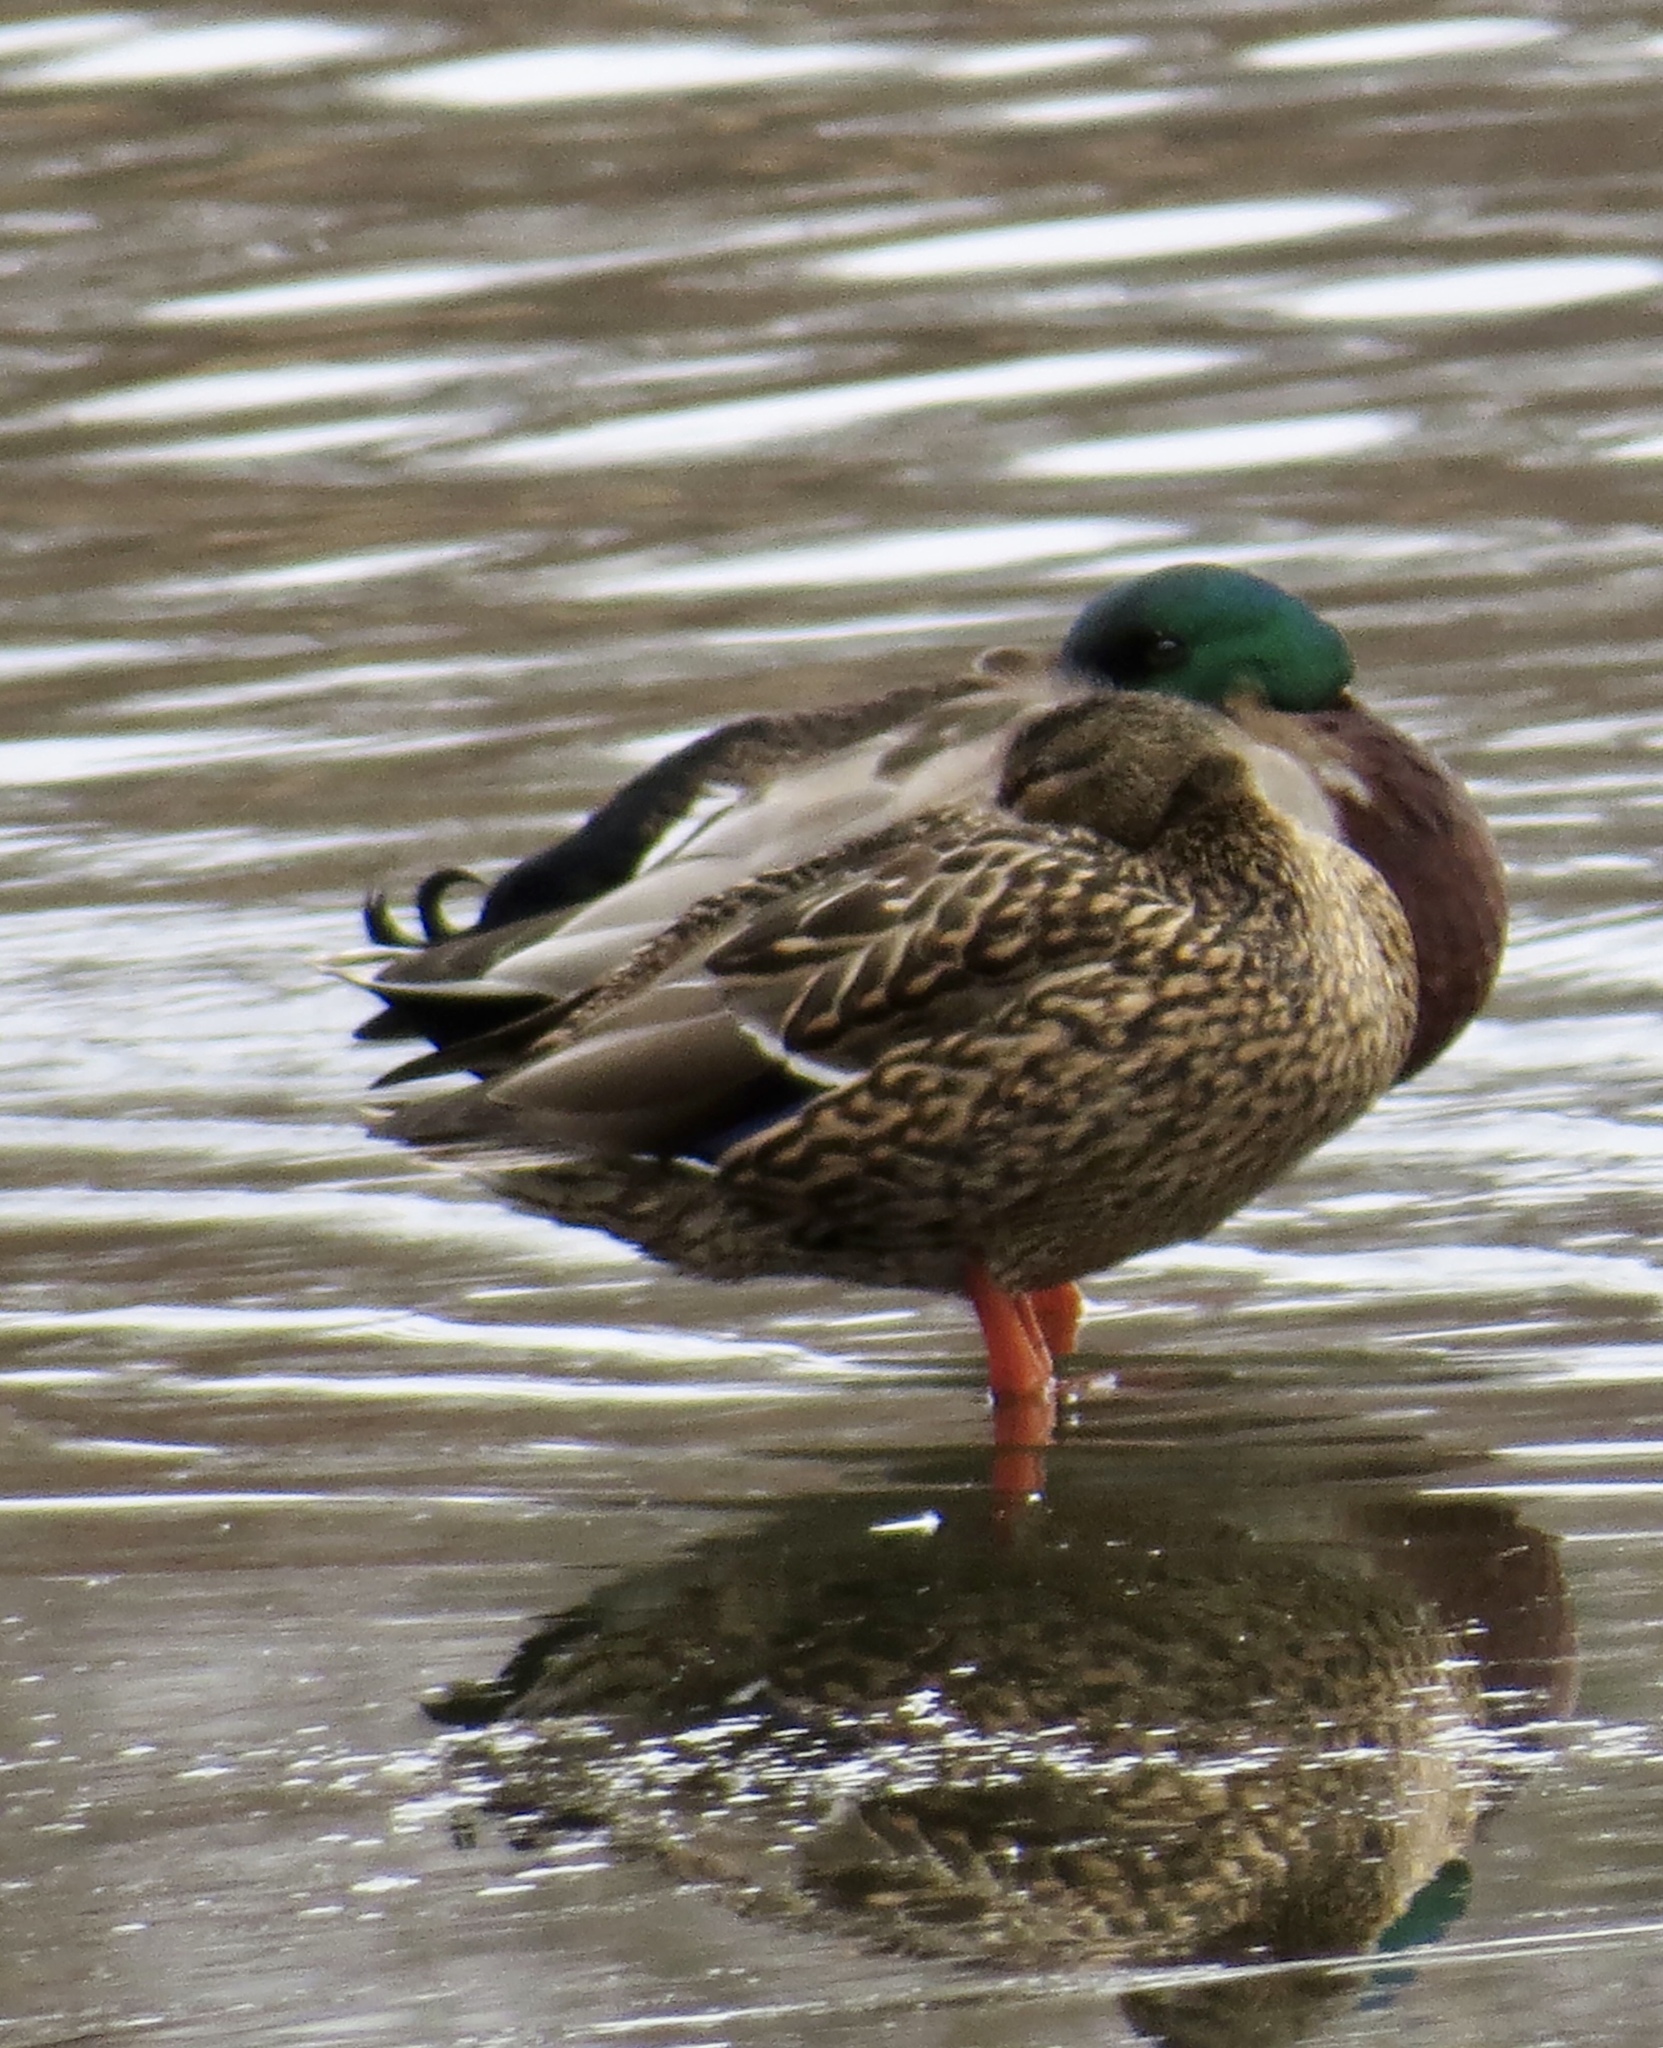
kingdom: Animalia
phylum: Chordata
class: Aves
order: Anseriformes
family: Anatidae
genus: Anas
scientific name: Anas platyrhynchos
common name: Mallard
